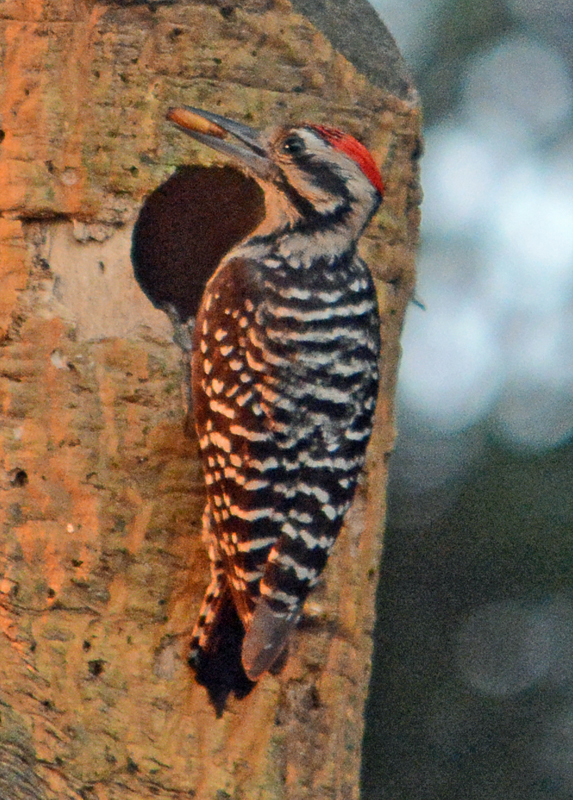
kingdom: Animalia
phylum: Chordata
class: Aves
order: Piciformes
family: Picidae
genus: Dryobates
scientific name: Dryobates scalaris
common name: Ladder-backed woodpecker
